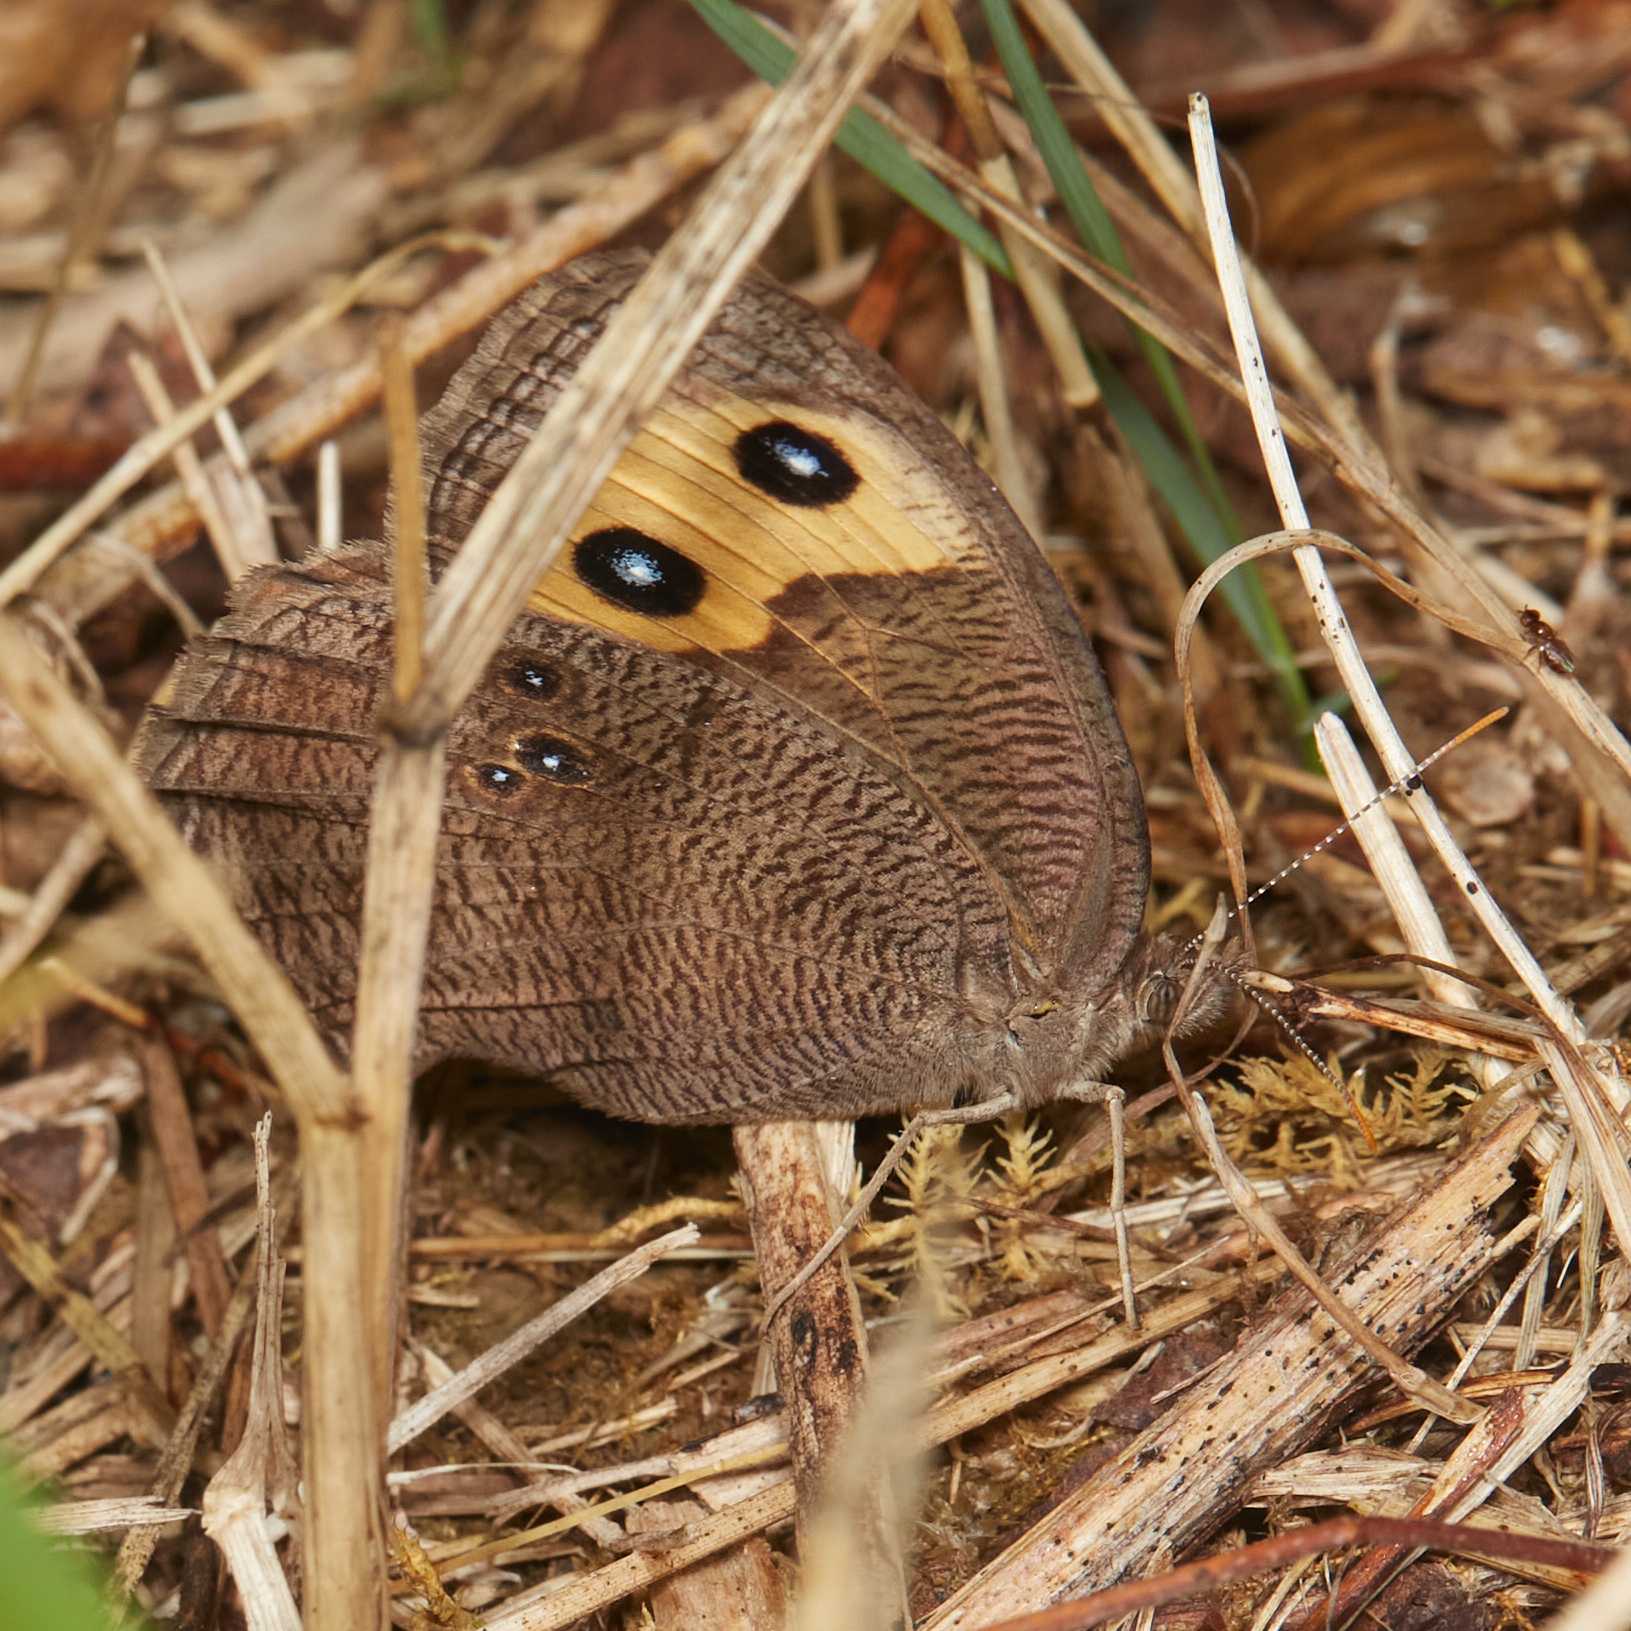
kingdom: Animalia
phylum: Arthropoda
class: Insecta
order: Lepidoptera
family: Nymphalidae
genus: Cercyonis
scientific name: Cercyonis pegala
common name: Common wood-nymph
